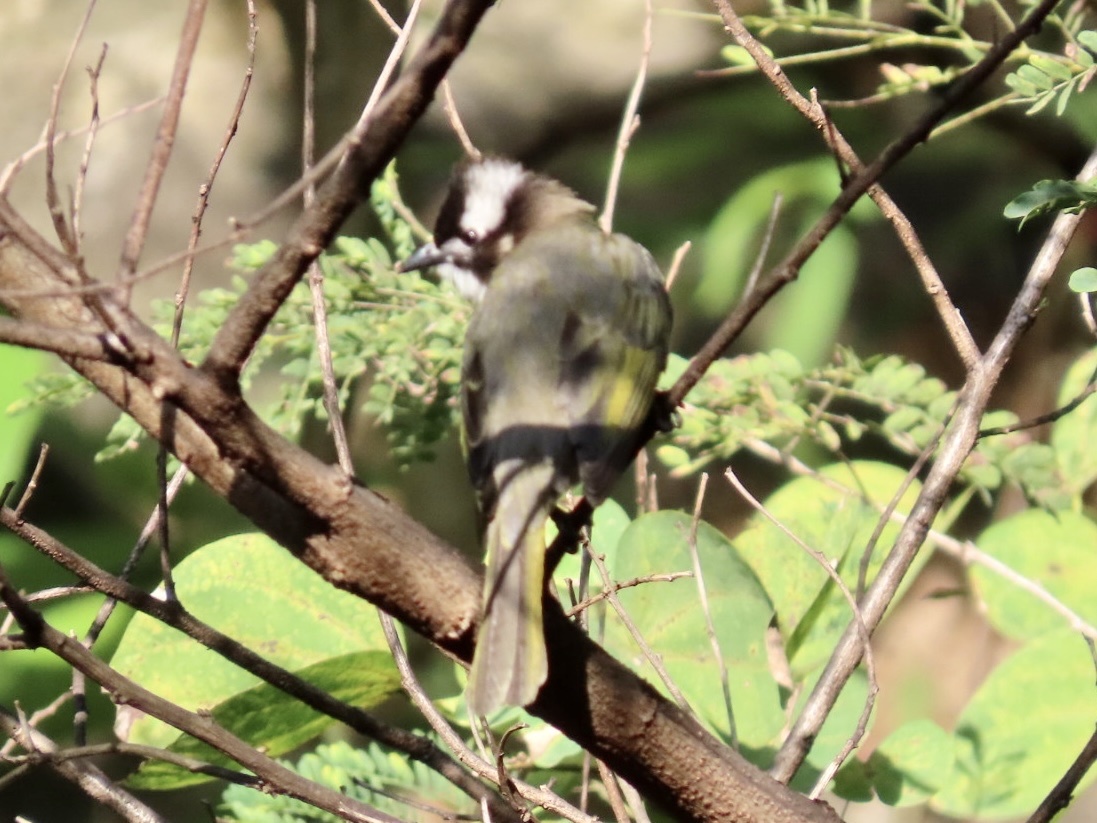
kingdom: Animalia
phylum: Chordata
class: Aves
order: Passeriformes
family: Pycnonotidae
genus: Pycnonotus
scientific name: Pycnonotus sinensis
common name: Light-vented bulbul
